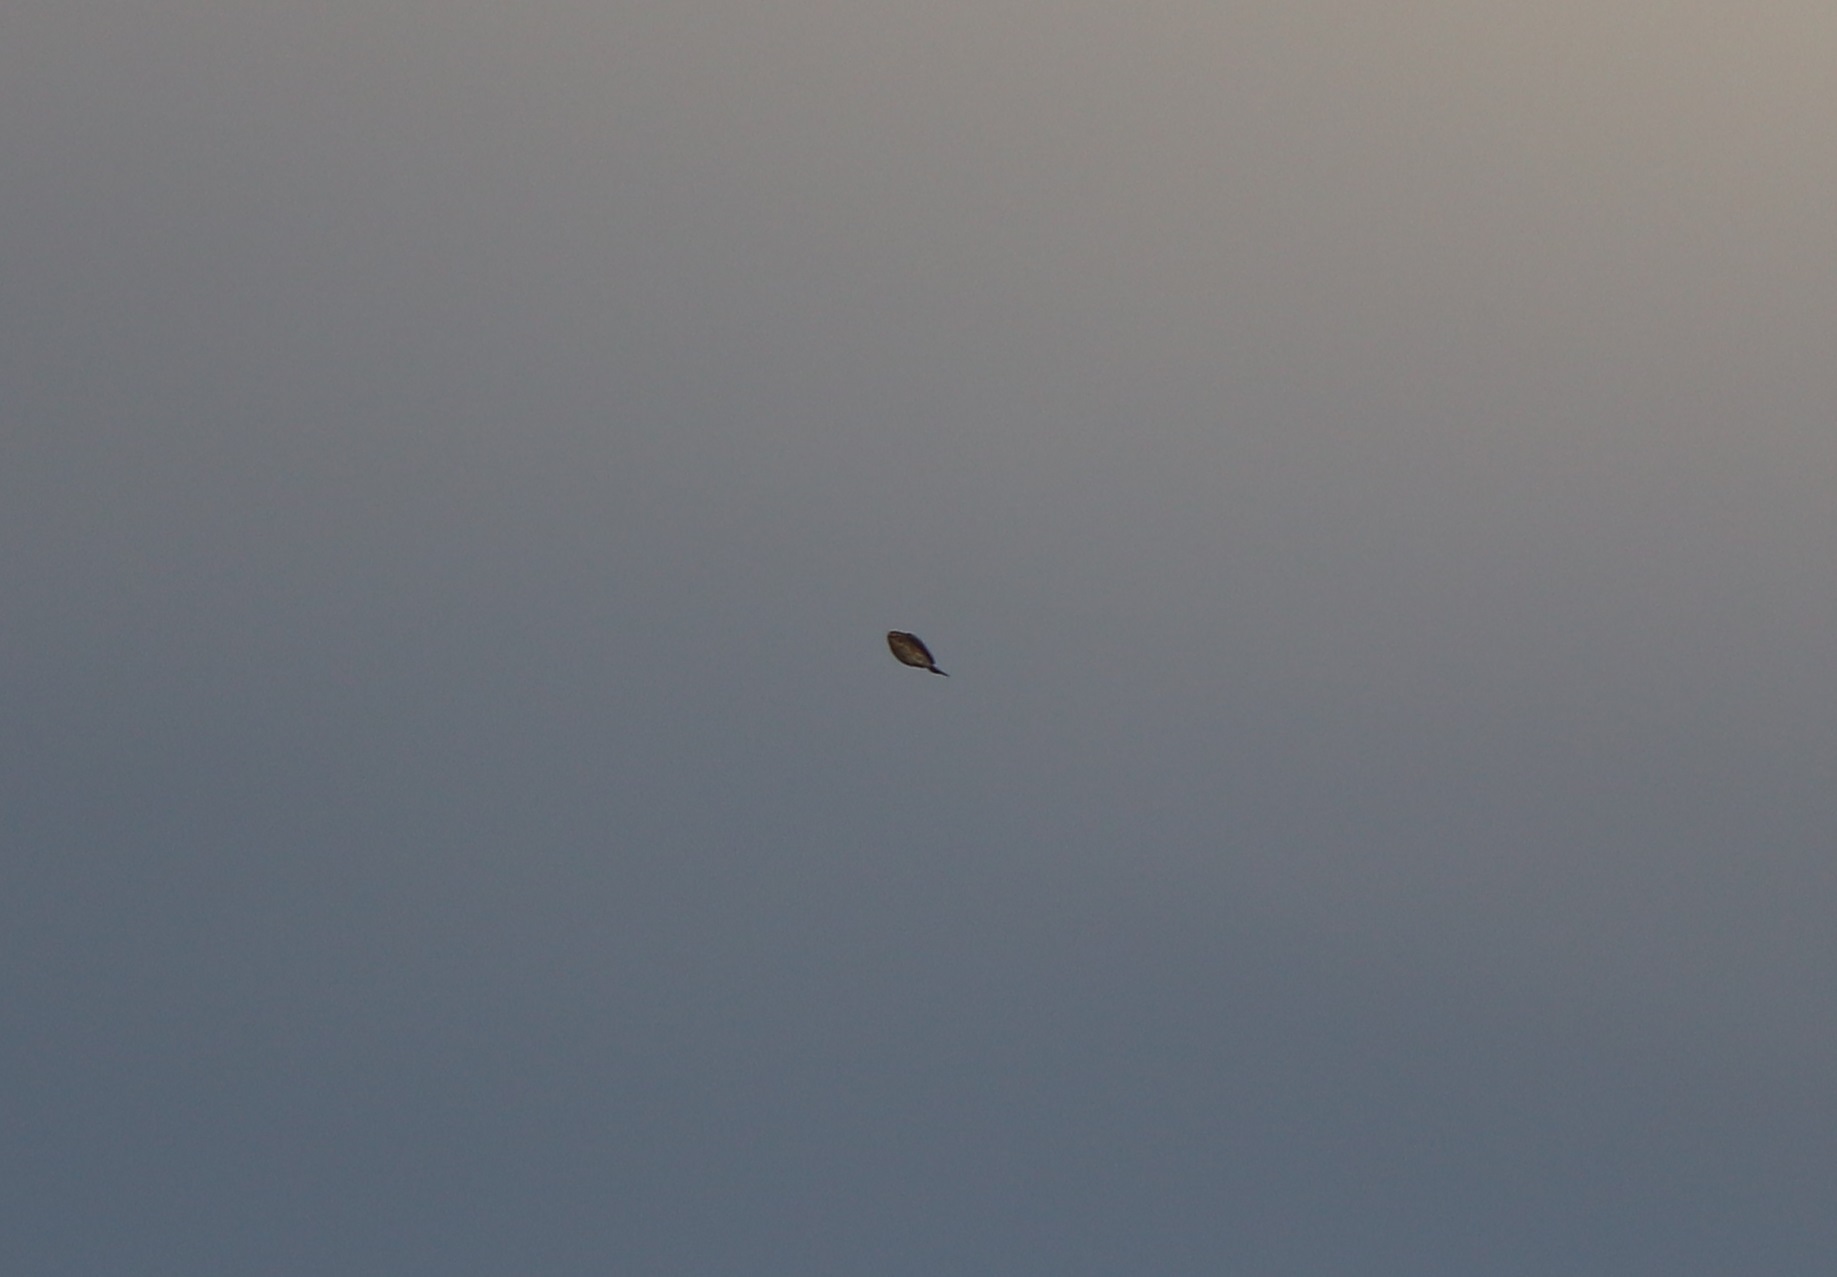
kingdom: Animalia
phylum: Chordata
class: Aves
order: Passeriformes
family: Parulidae
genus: Setophaga
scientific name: Setophaga coronata
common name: Myrtle warbler
